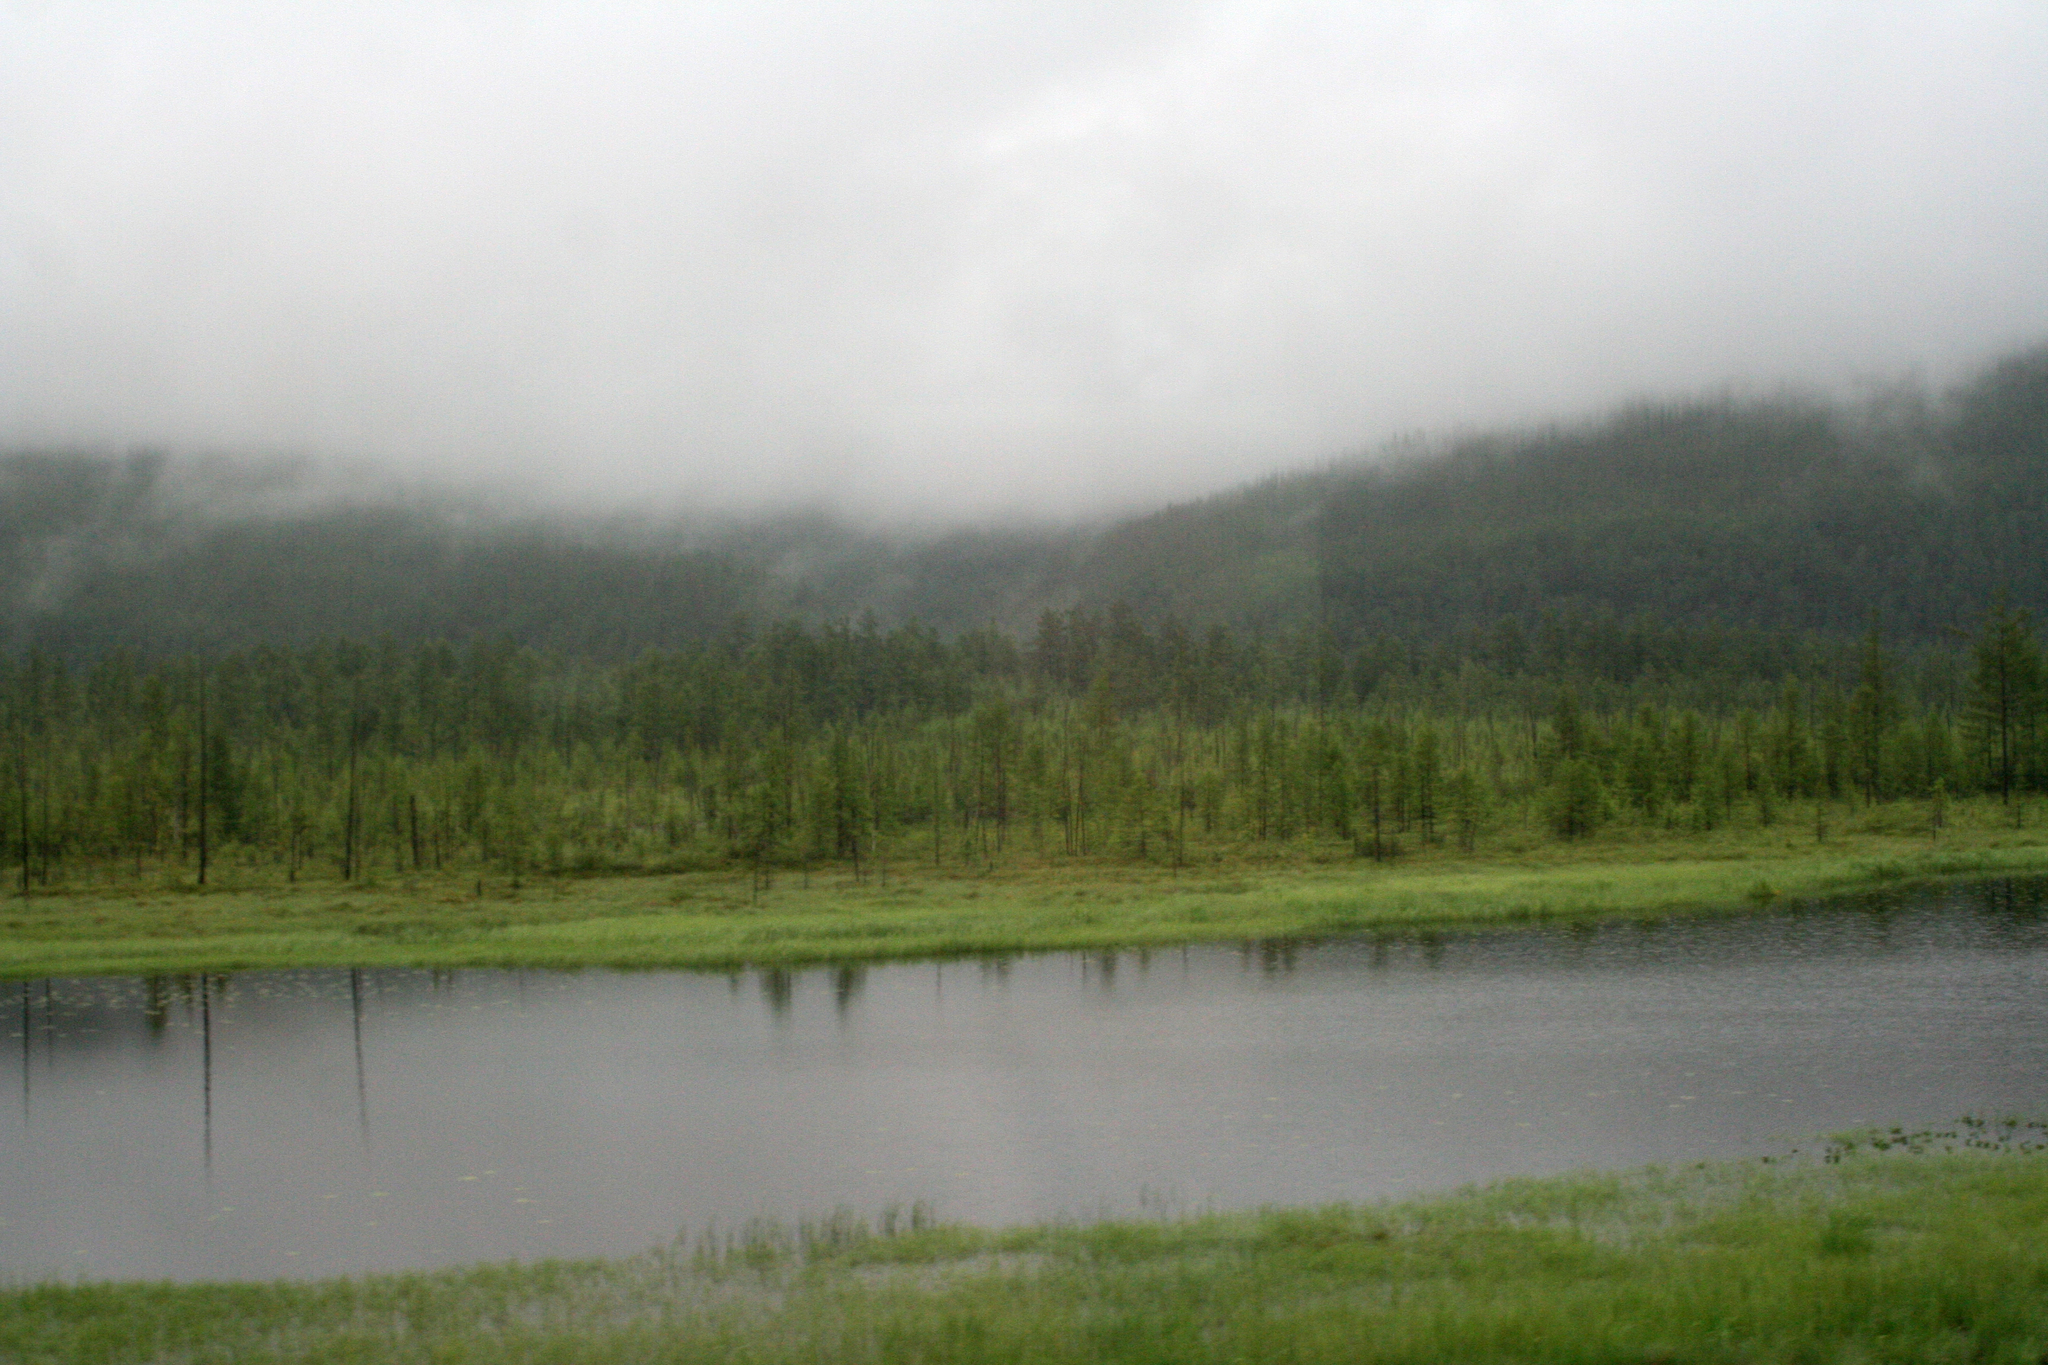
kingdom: Plantae
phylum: Tracheophyta
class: Pinopsida
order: Pinales
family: Pinaceae
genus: Larix
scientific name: Larix gmelinii
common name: Dahurian larch
